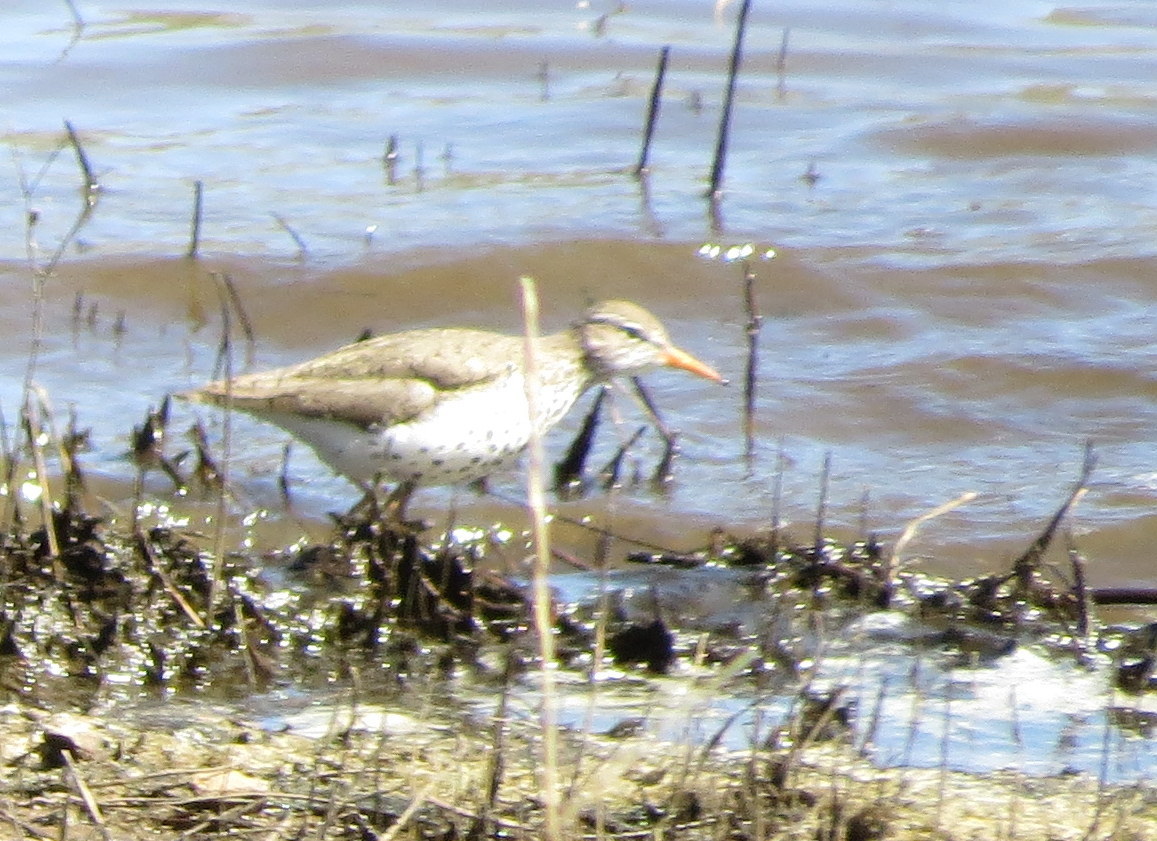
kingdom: Animalia
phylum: Chordata
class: Aves
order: Charadriiformes
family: Scolopacidae
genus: Actitis
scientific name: Actitis macularius
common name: Spotted sandpiper
